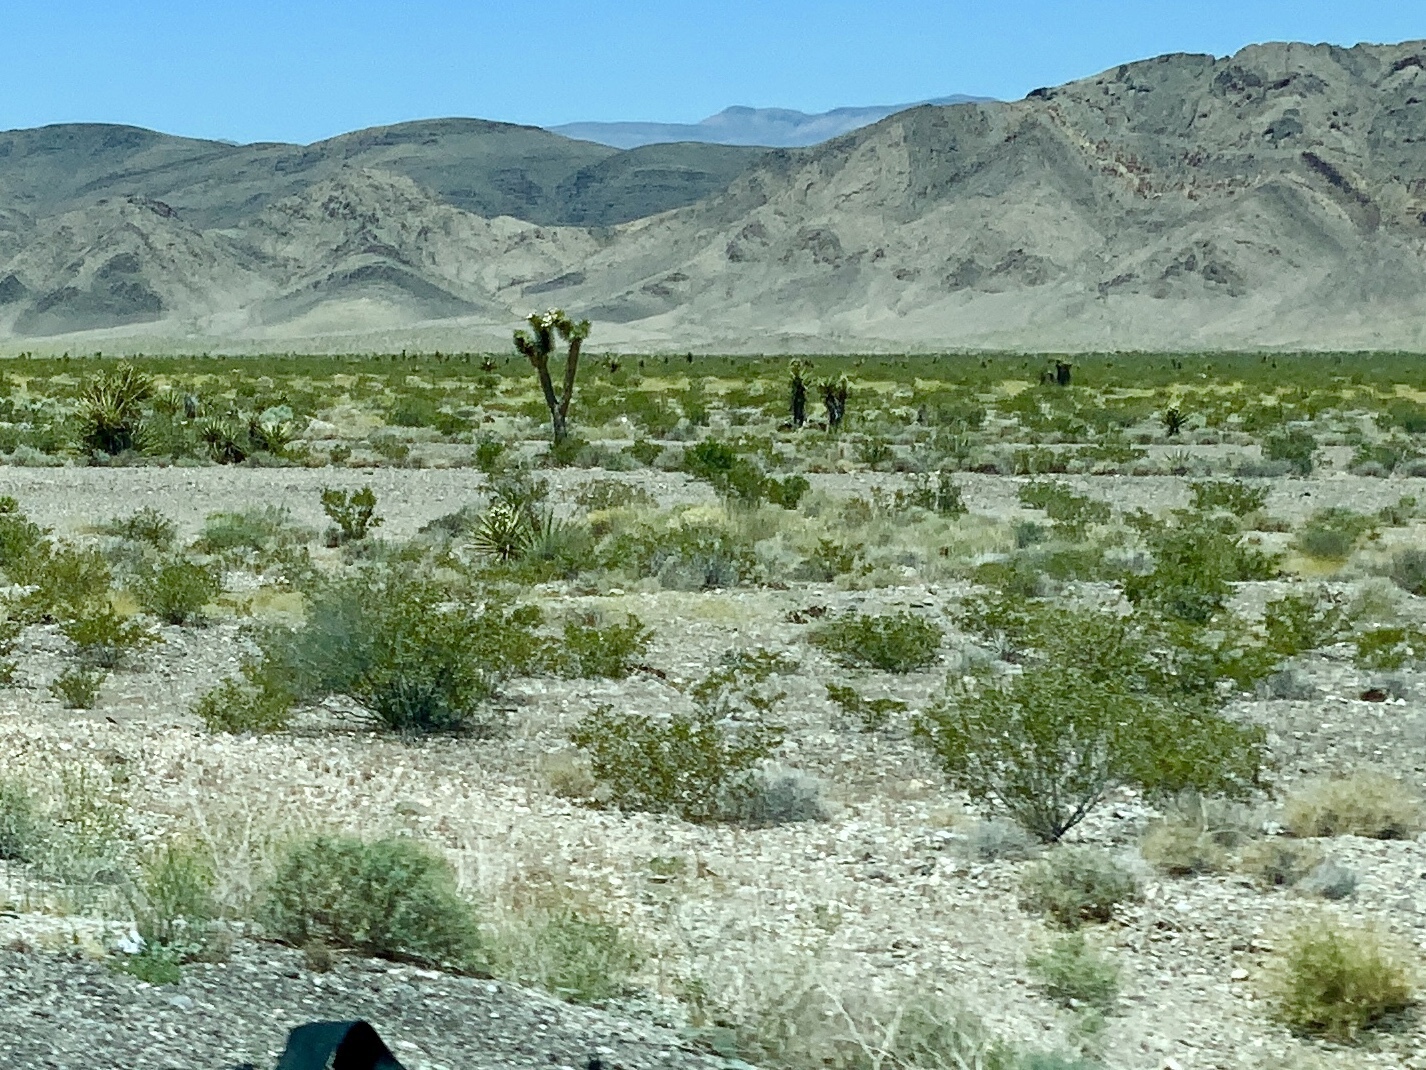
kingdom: Plantae
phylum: Tracheophyta
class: Magnoliopsida
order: Zygophyllales
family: Zygophyllaceae
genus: Larrea
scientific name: Larrea tridentata
